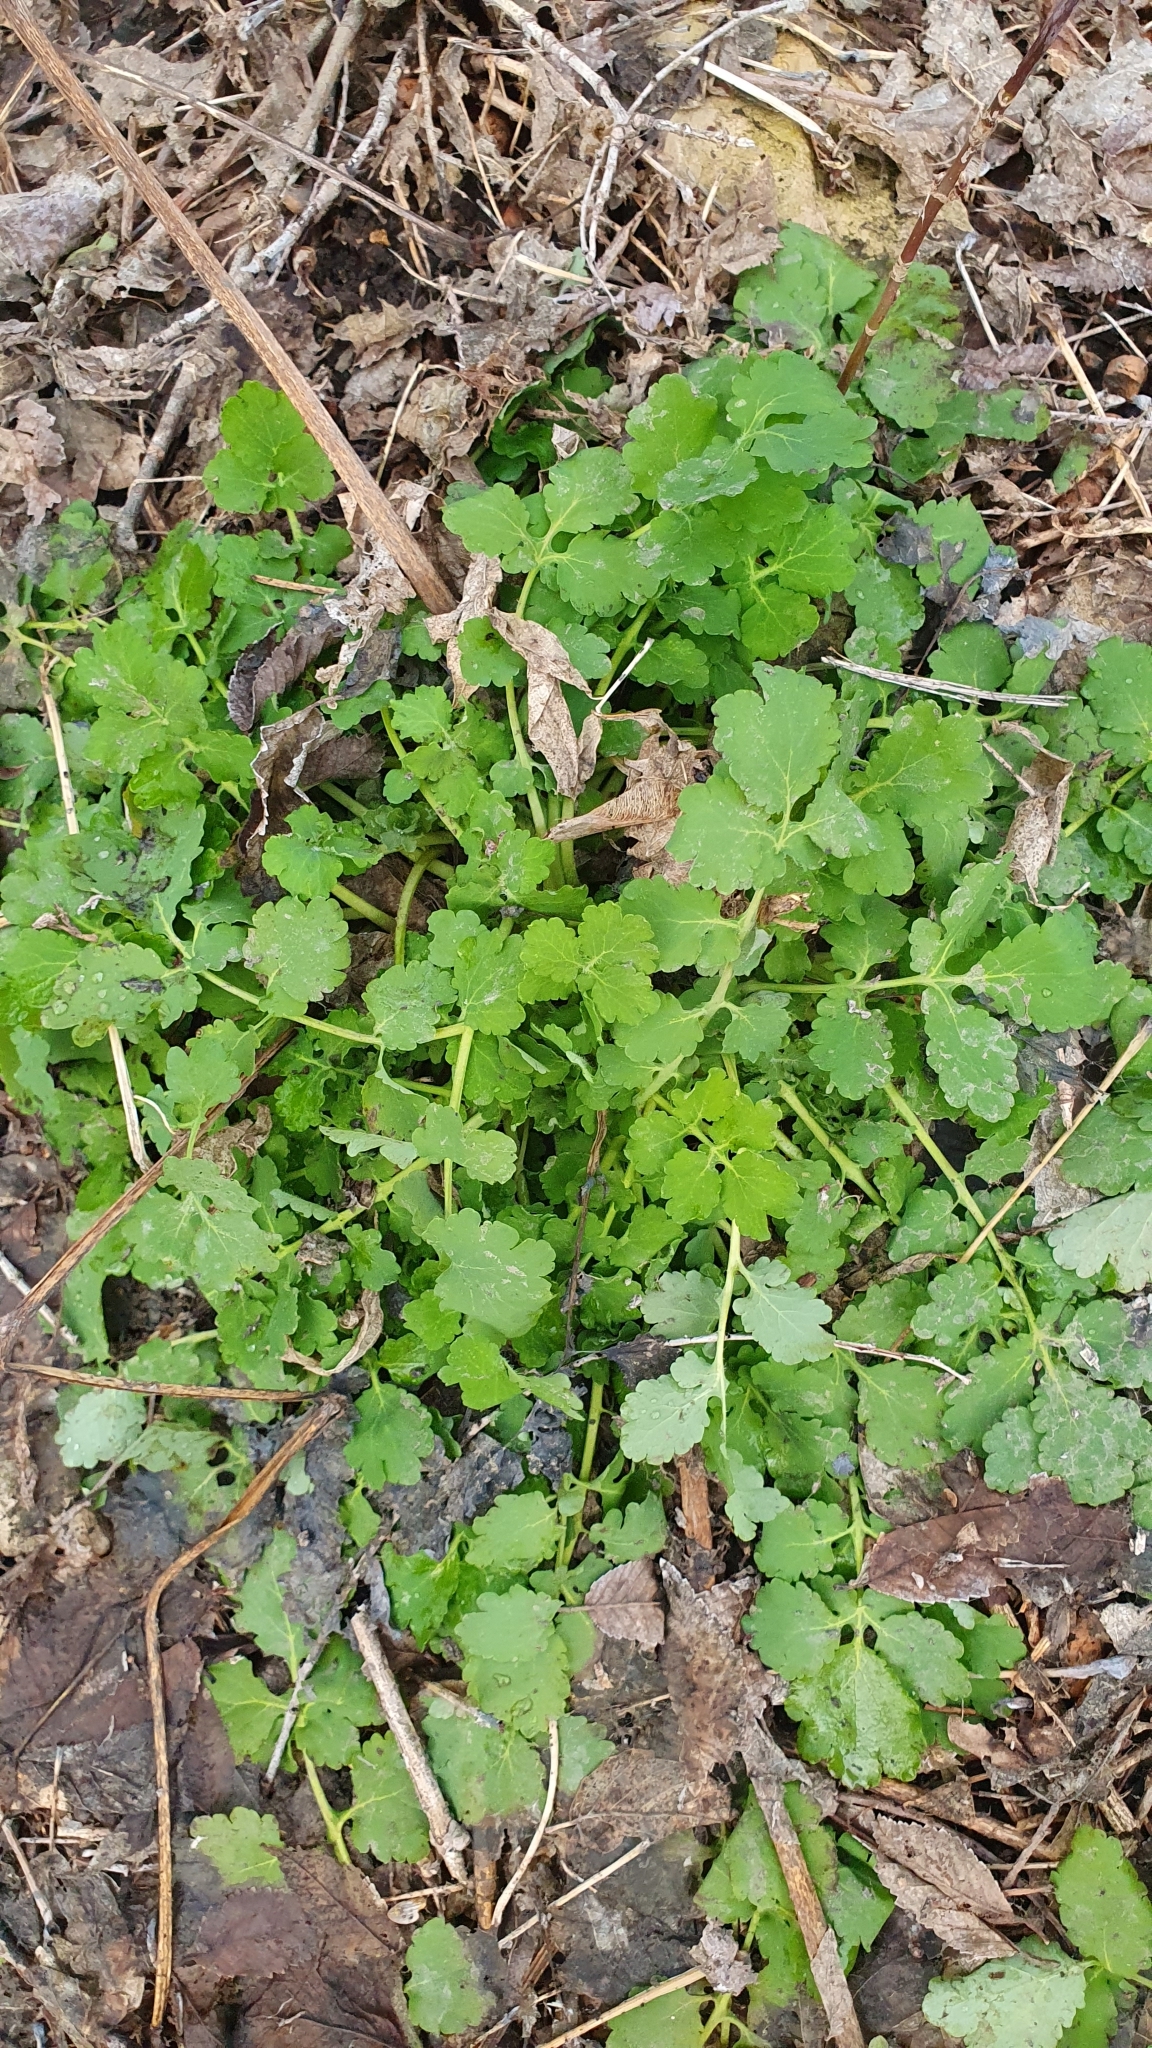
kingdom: Plantae
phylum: Tracheophyta
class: Magnoliopsida
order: Ranunculales
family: Papaveraceae
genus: Chelidonium
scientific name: Chelidonium majus
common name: Greater celandine
